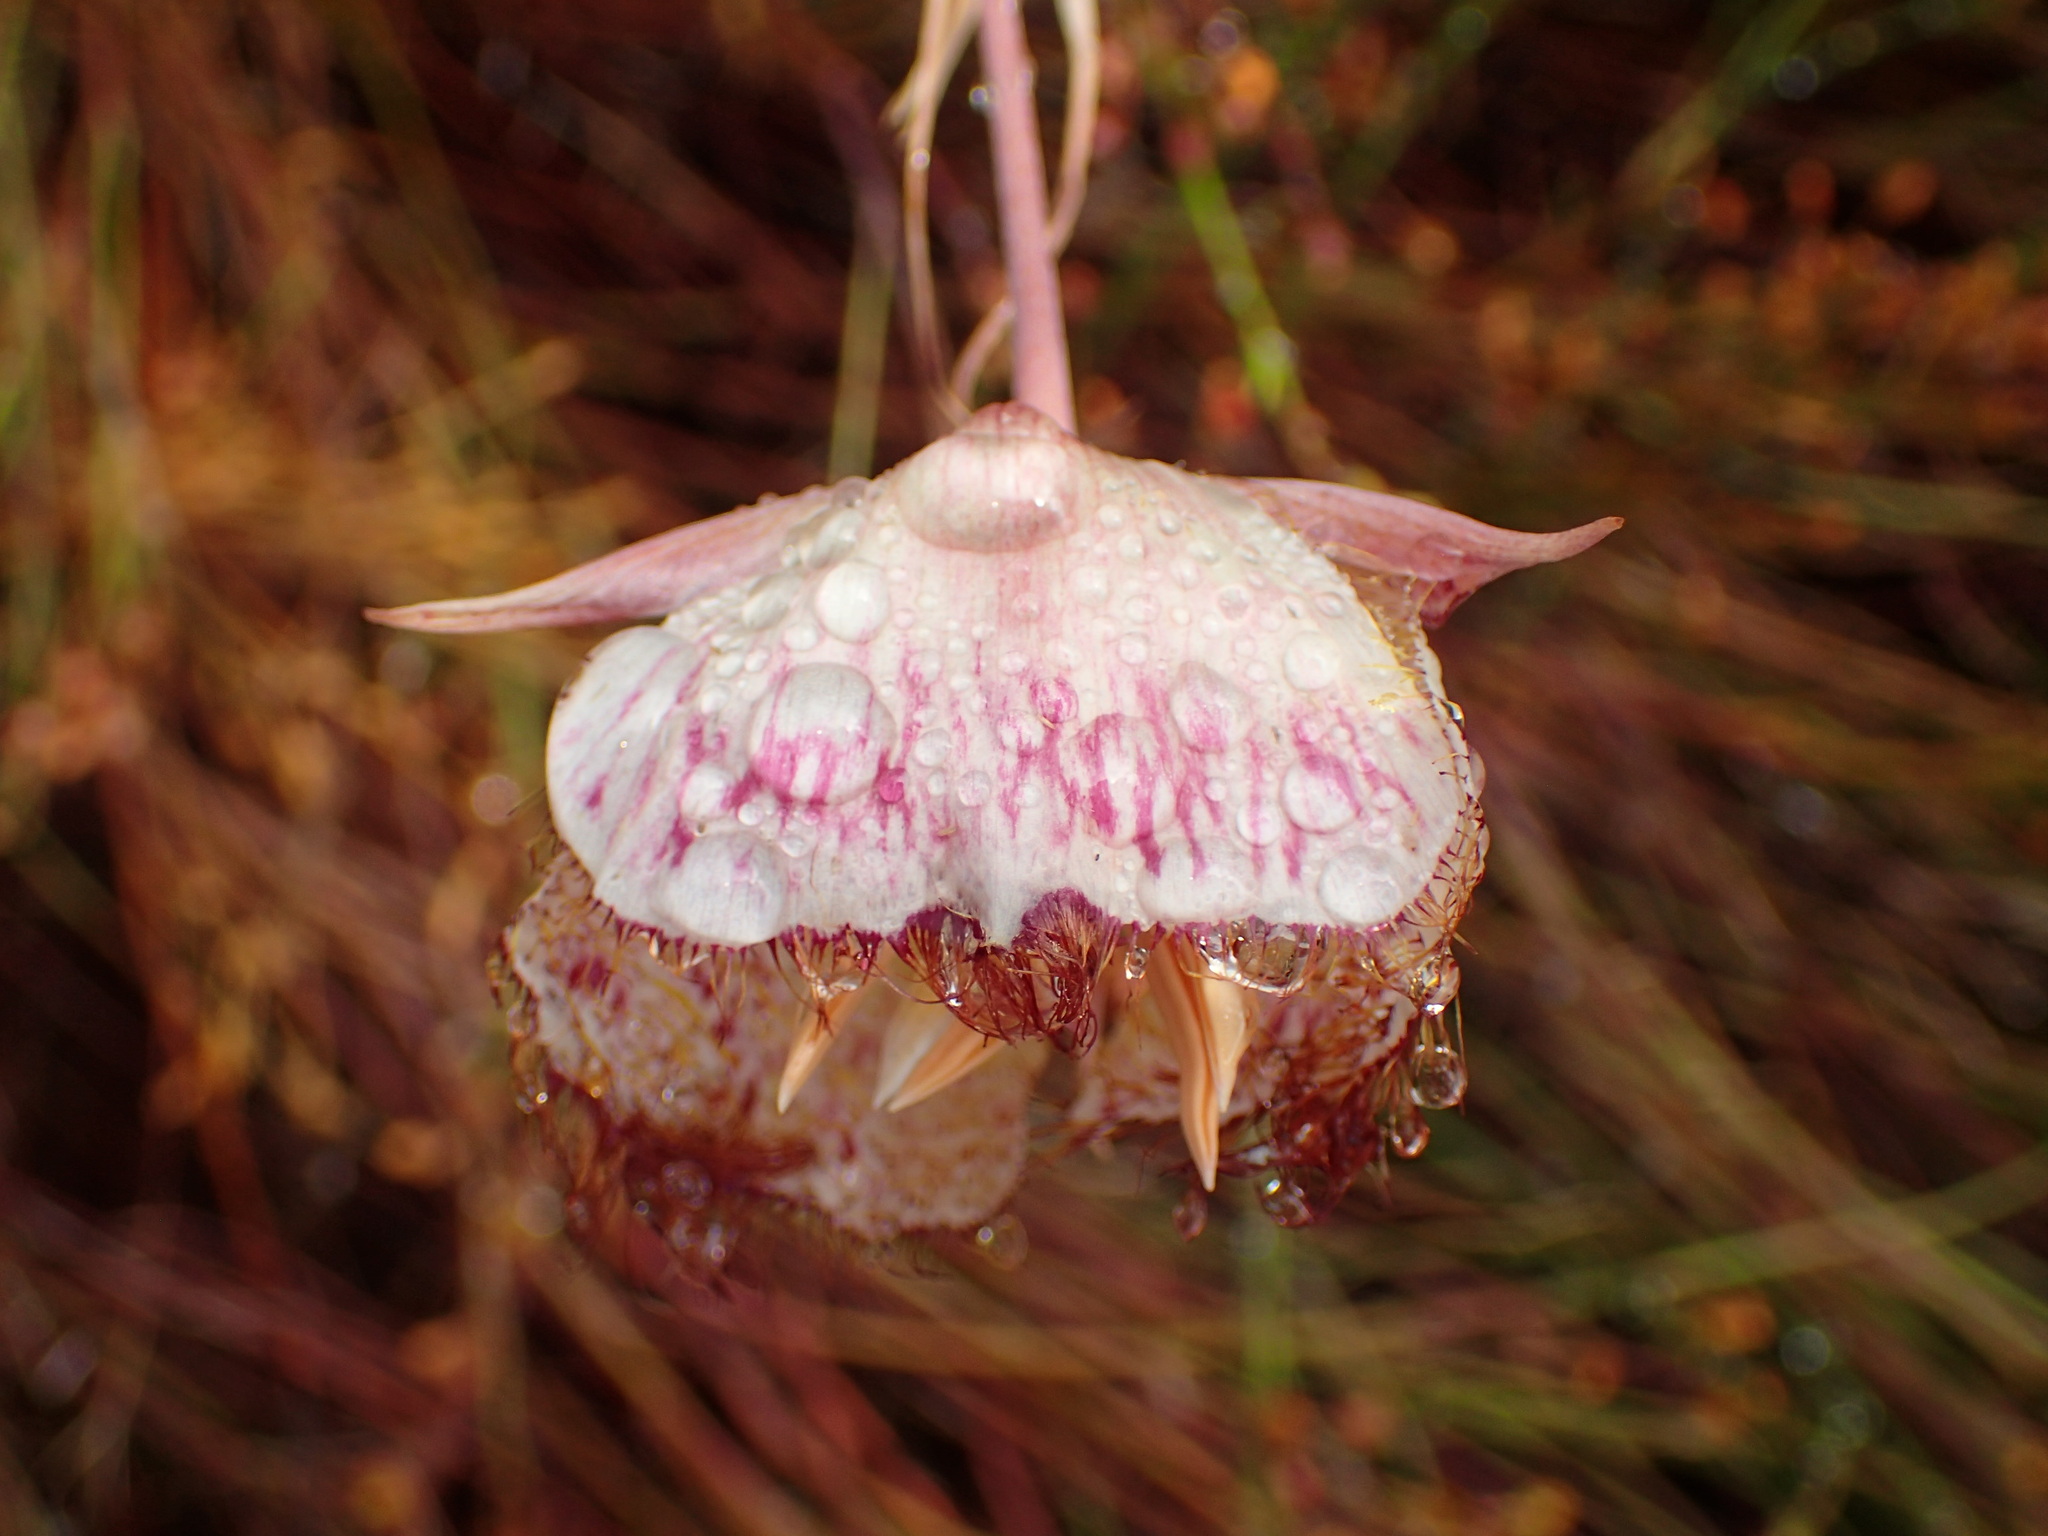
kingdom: Plantae
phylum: Tracheophyta
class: Liliopsida
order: Liliales
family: Liliaceae
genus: Calochortus
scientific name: Calochortus fimbriatus
